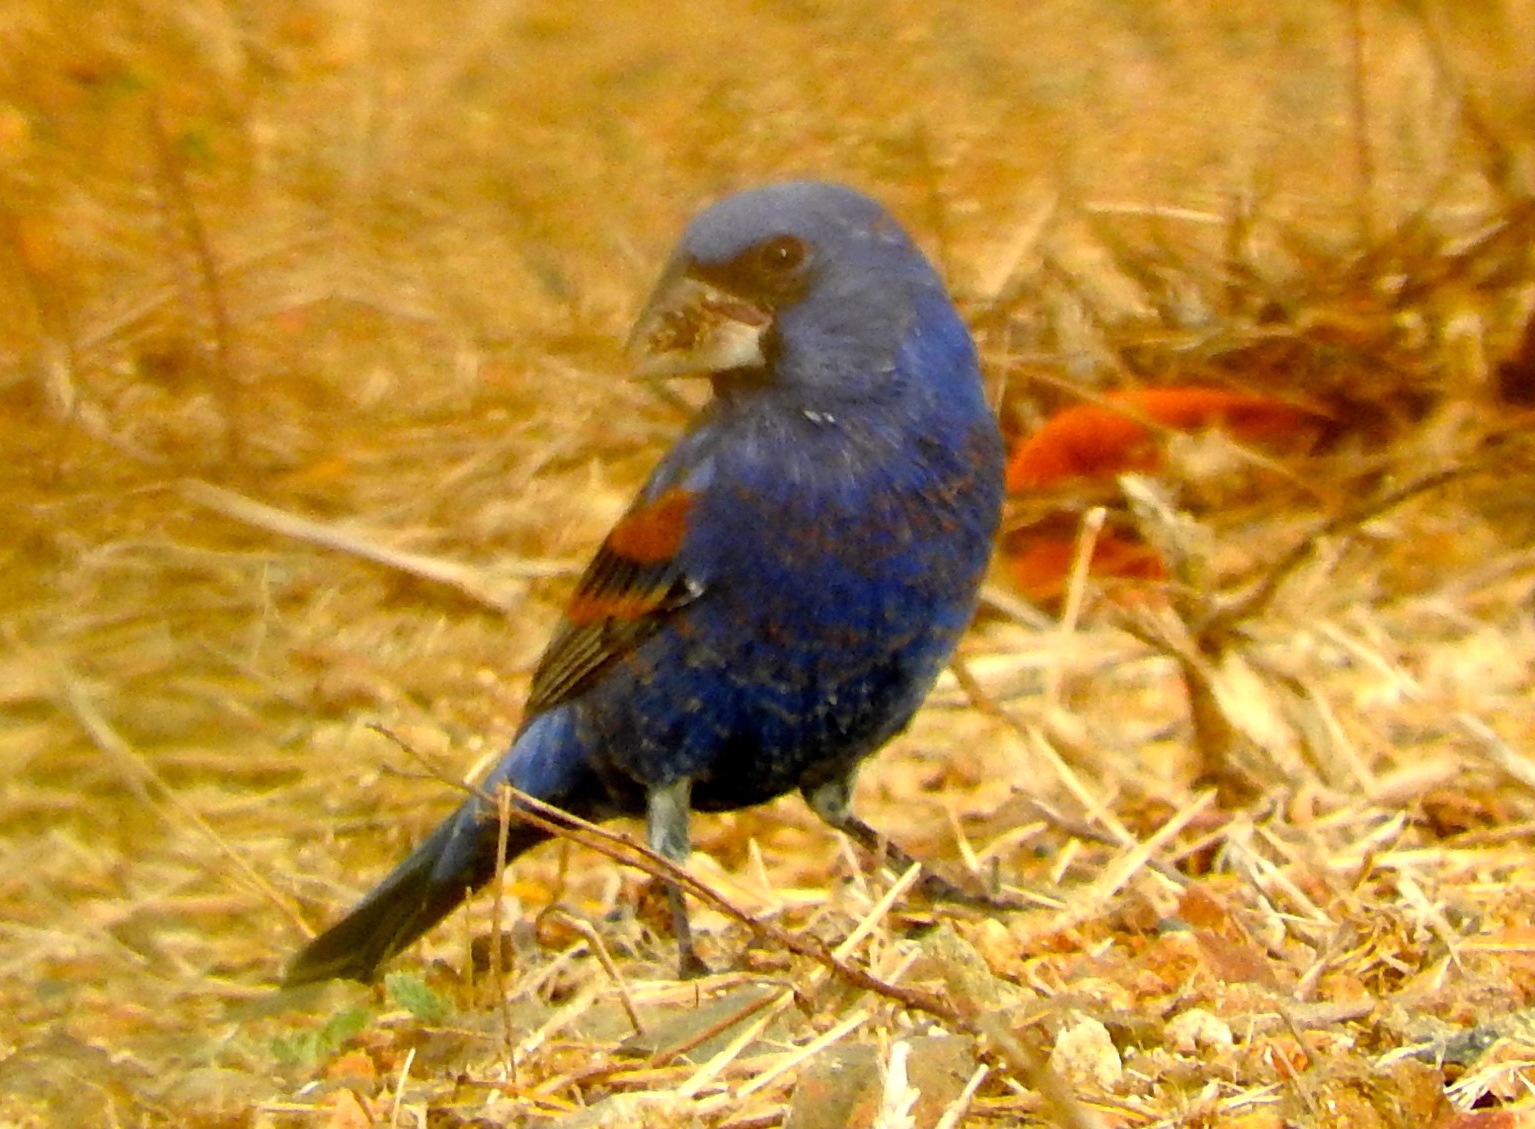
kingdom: Animalia
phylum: Chordata
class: Aves
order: Passeriformes
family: Cardinalidae
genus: Passerina
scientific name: Passerina caerulea
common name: Blue grosbeak
